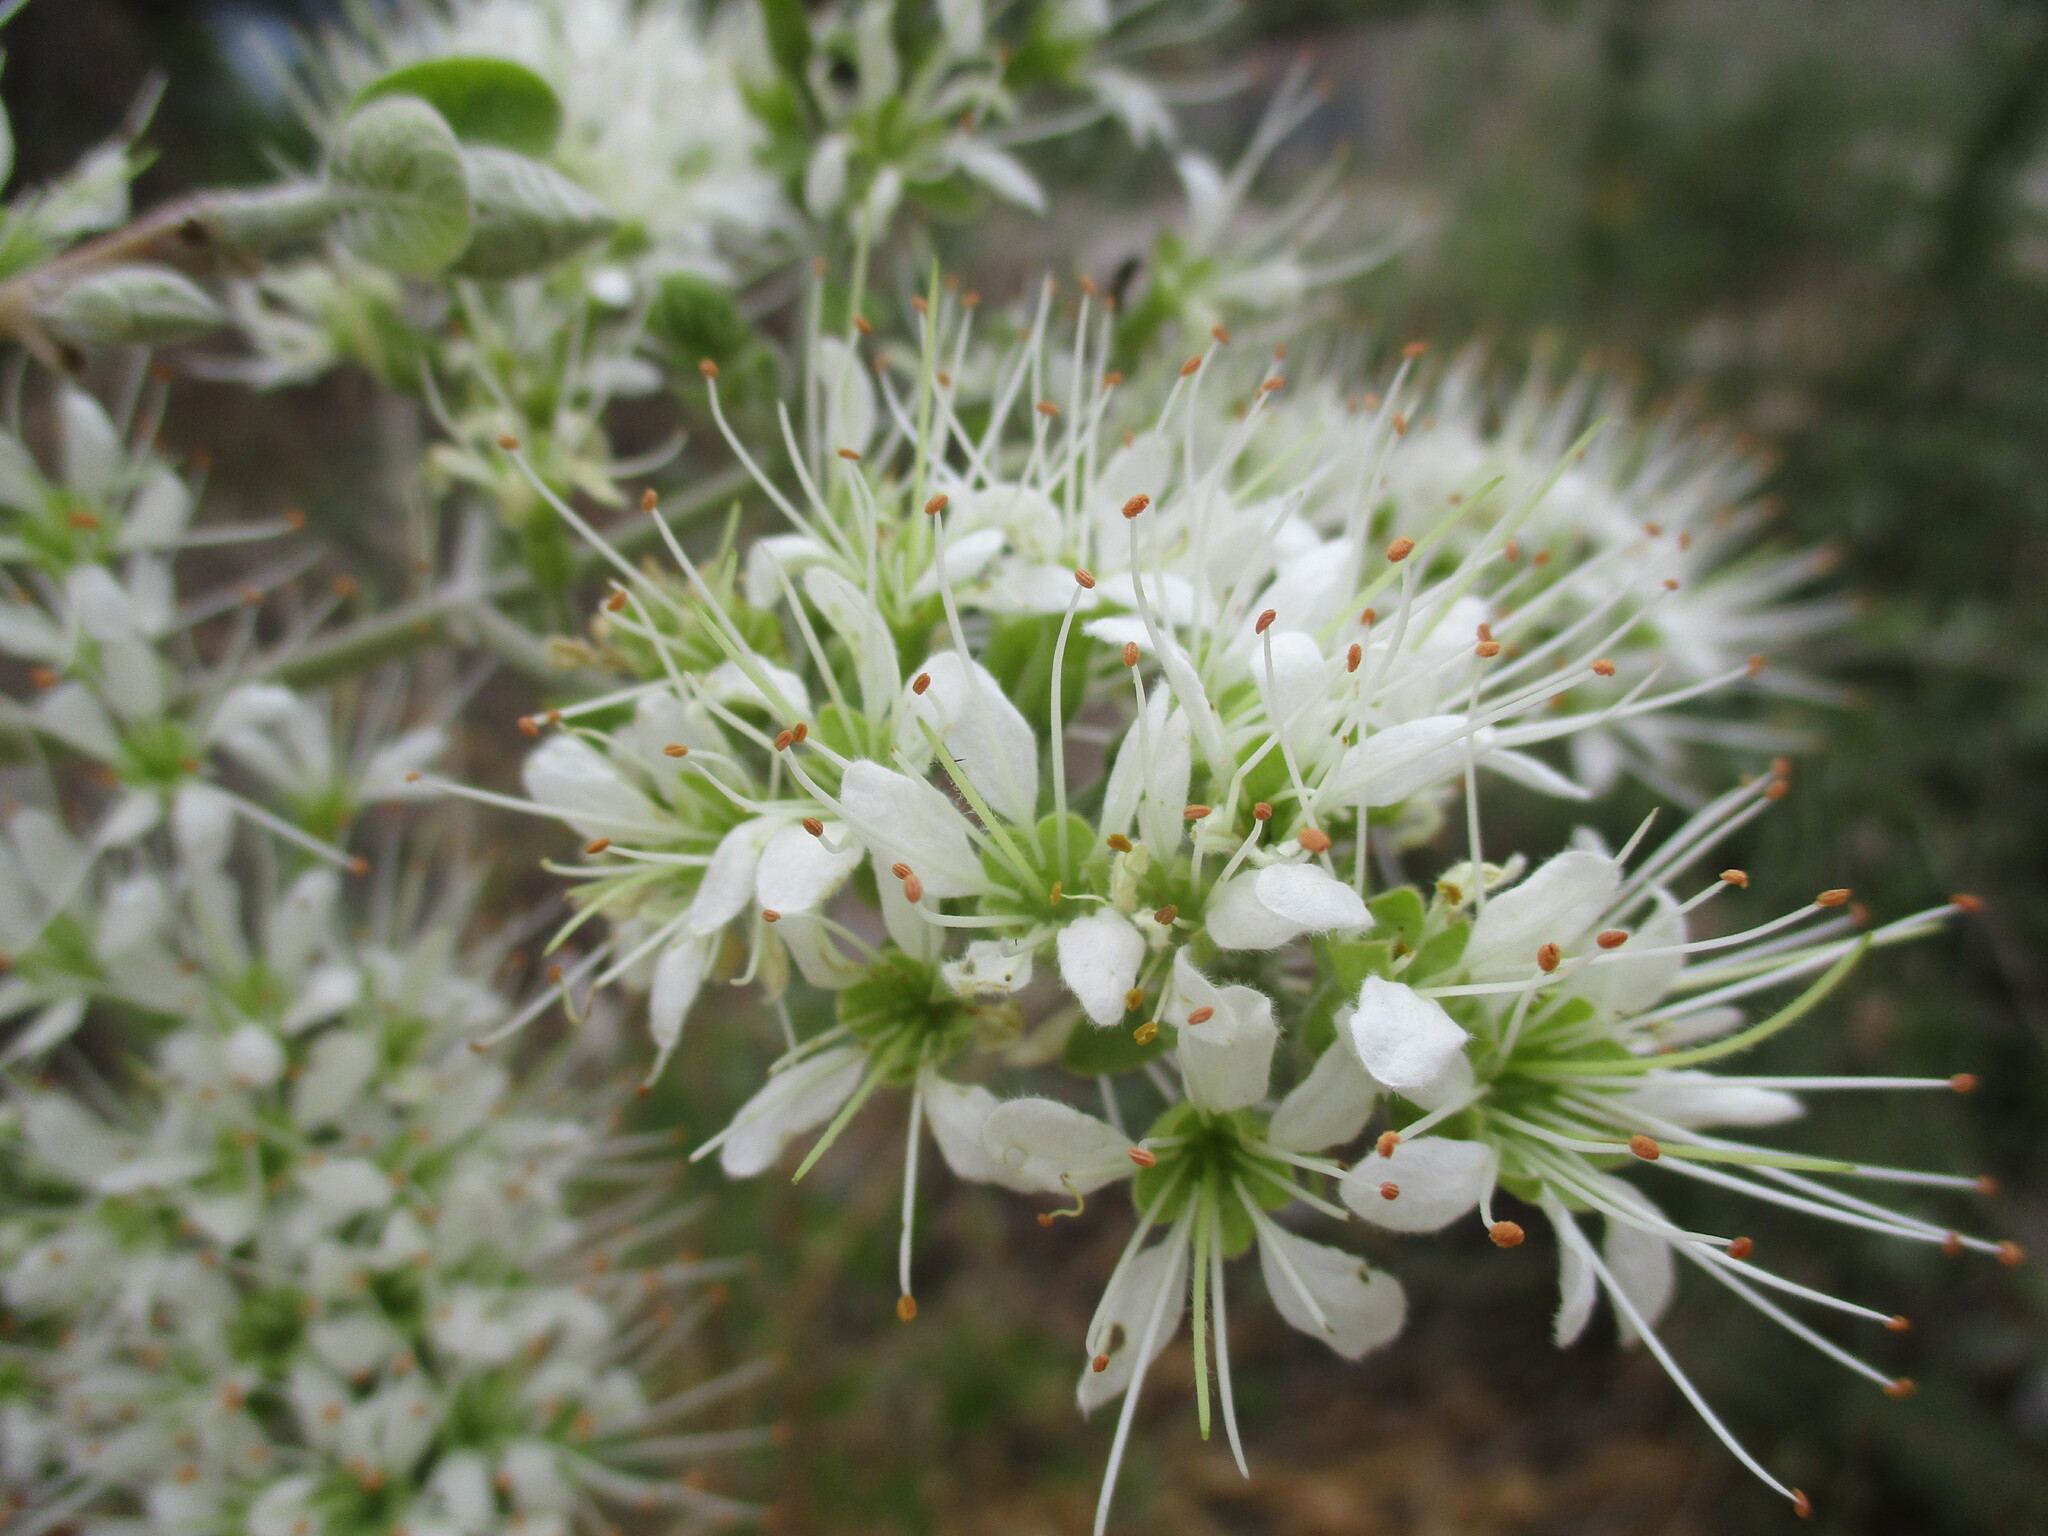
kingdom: Plantae
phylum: Tracheophyta
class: Magnoliopsida
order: Myrtales
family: Combretaceae
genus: Combretum
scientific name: Combretum mossambicense
